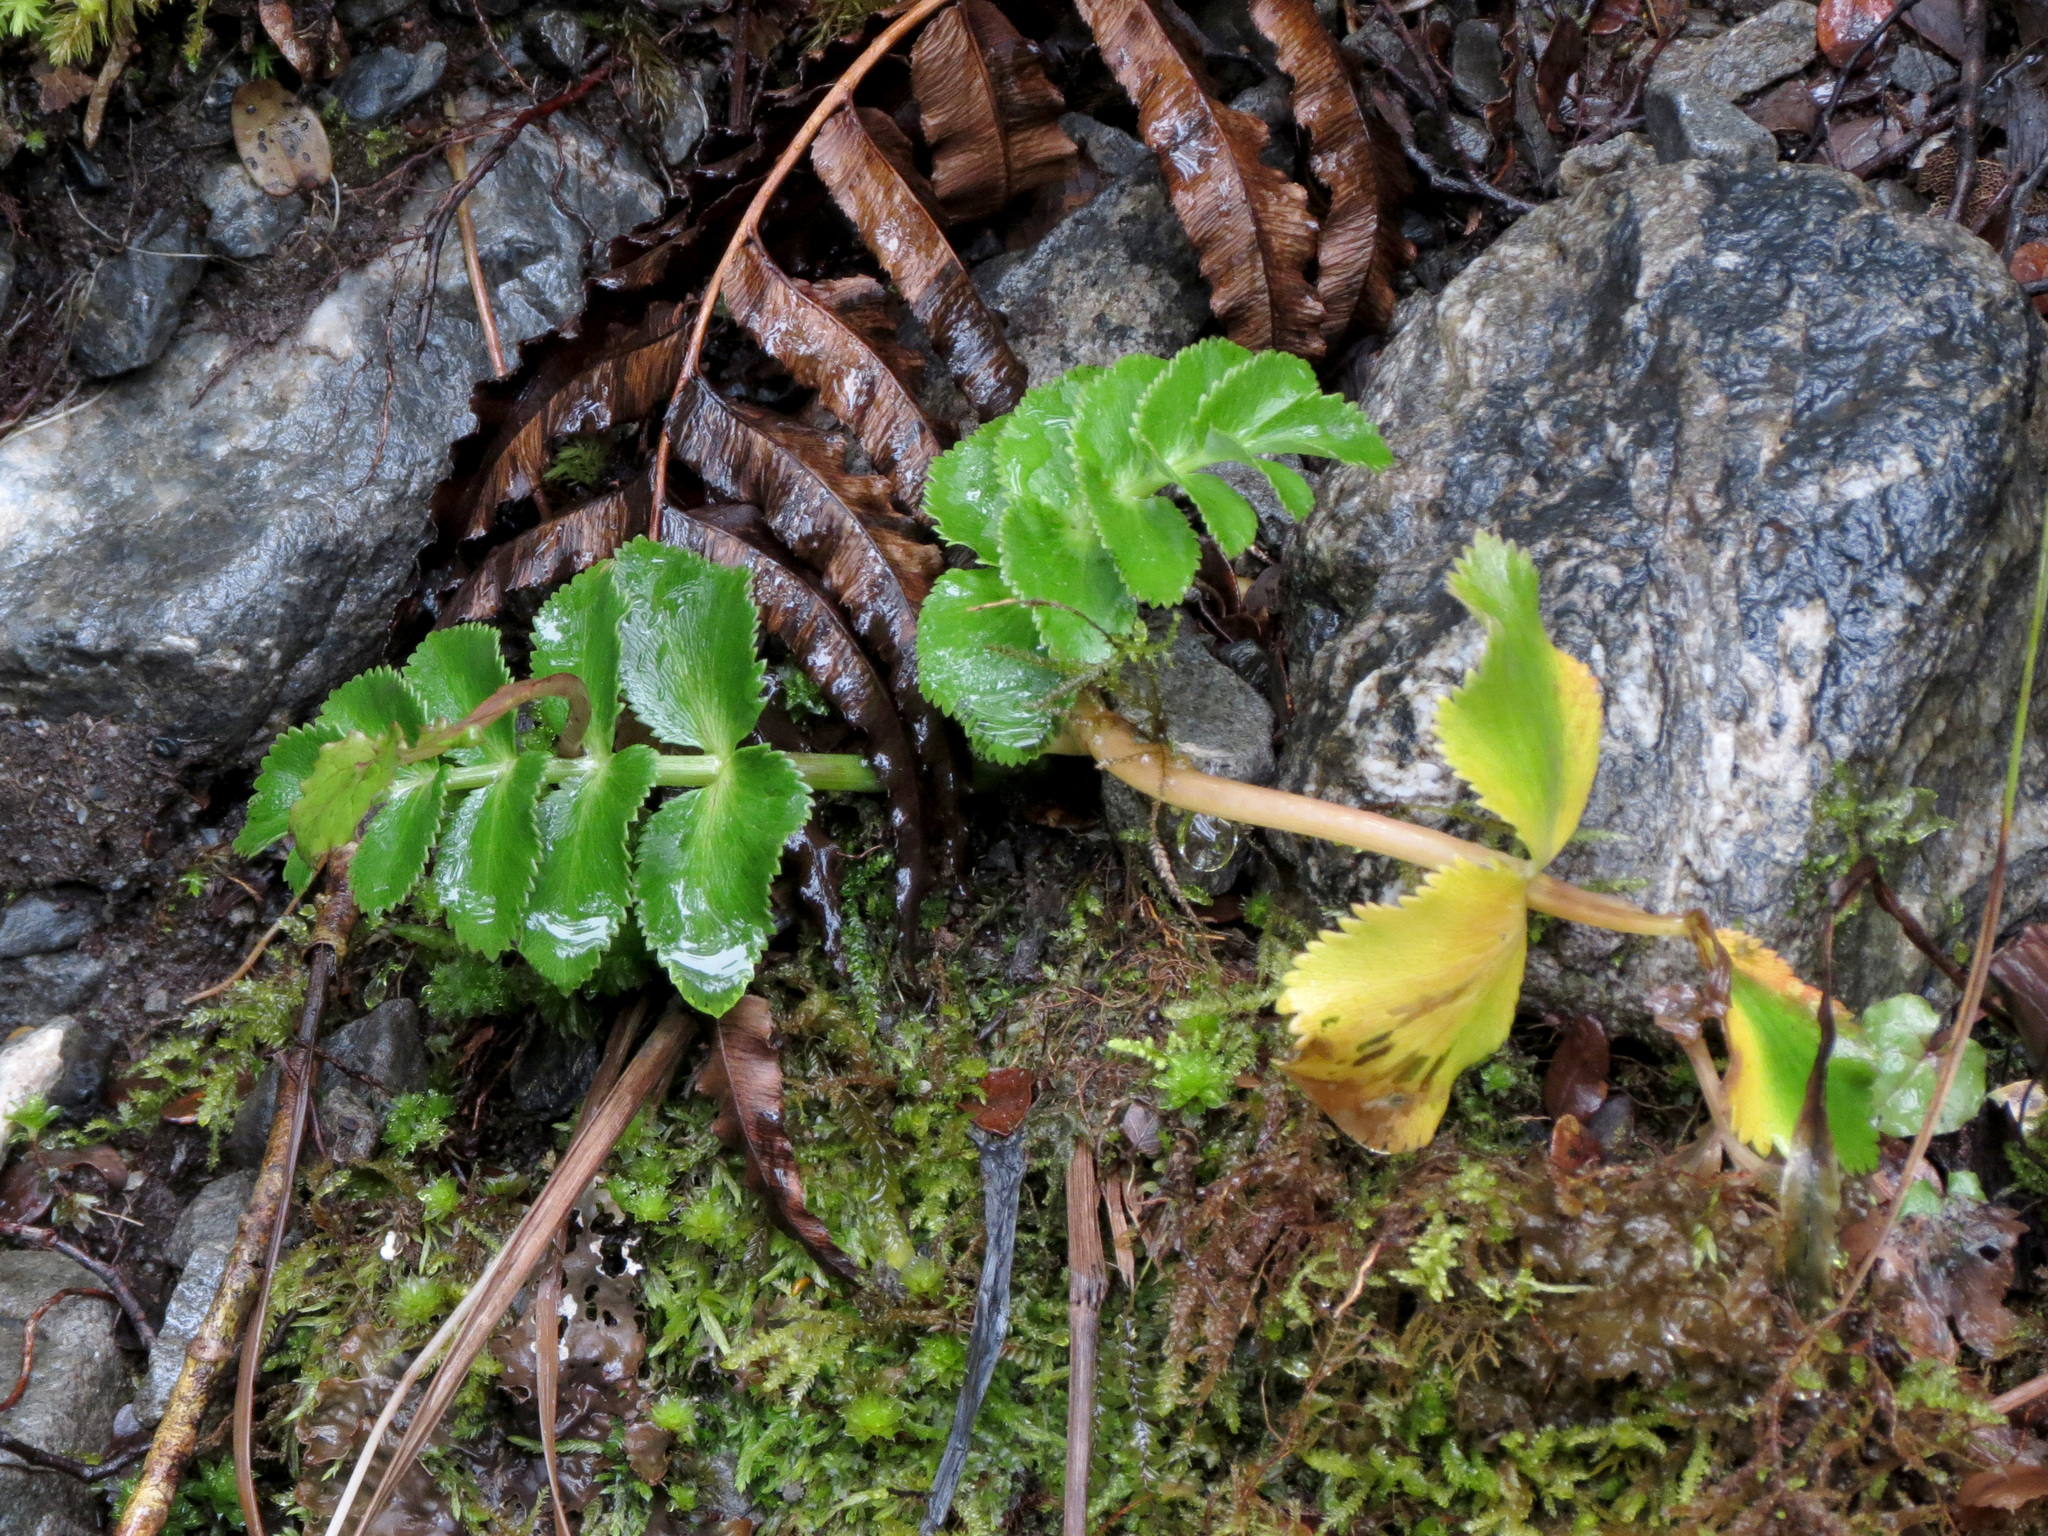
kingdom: Plantae
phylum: Tracheophyta
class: Magnoliopsida
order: Apiales
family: Apiaceae
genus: Gingidia
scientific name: Gingidia montana
